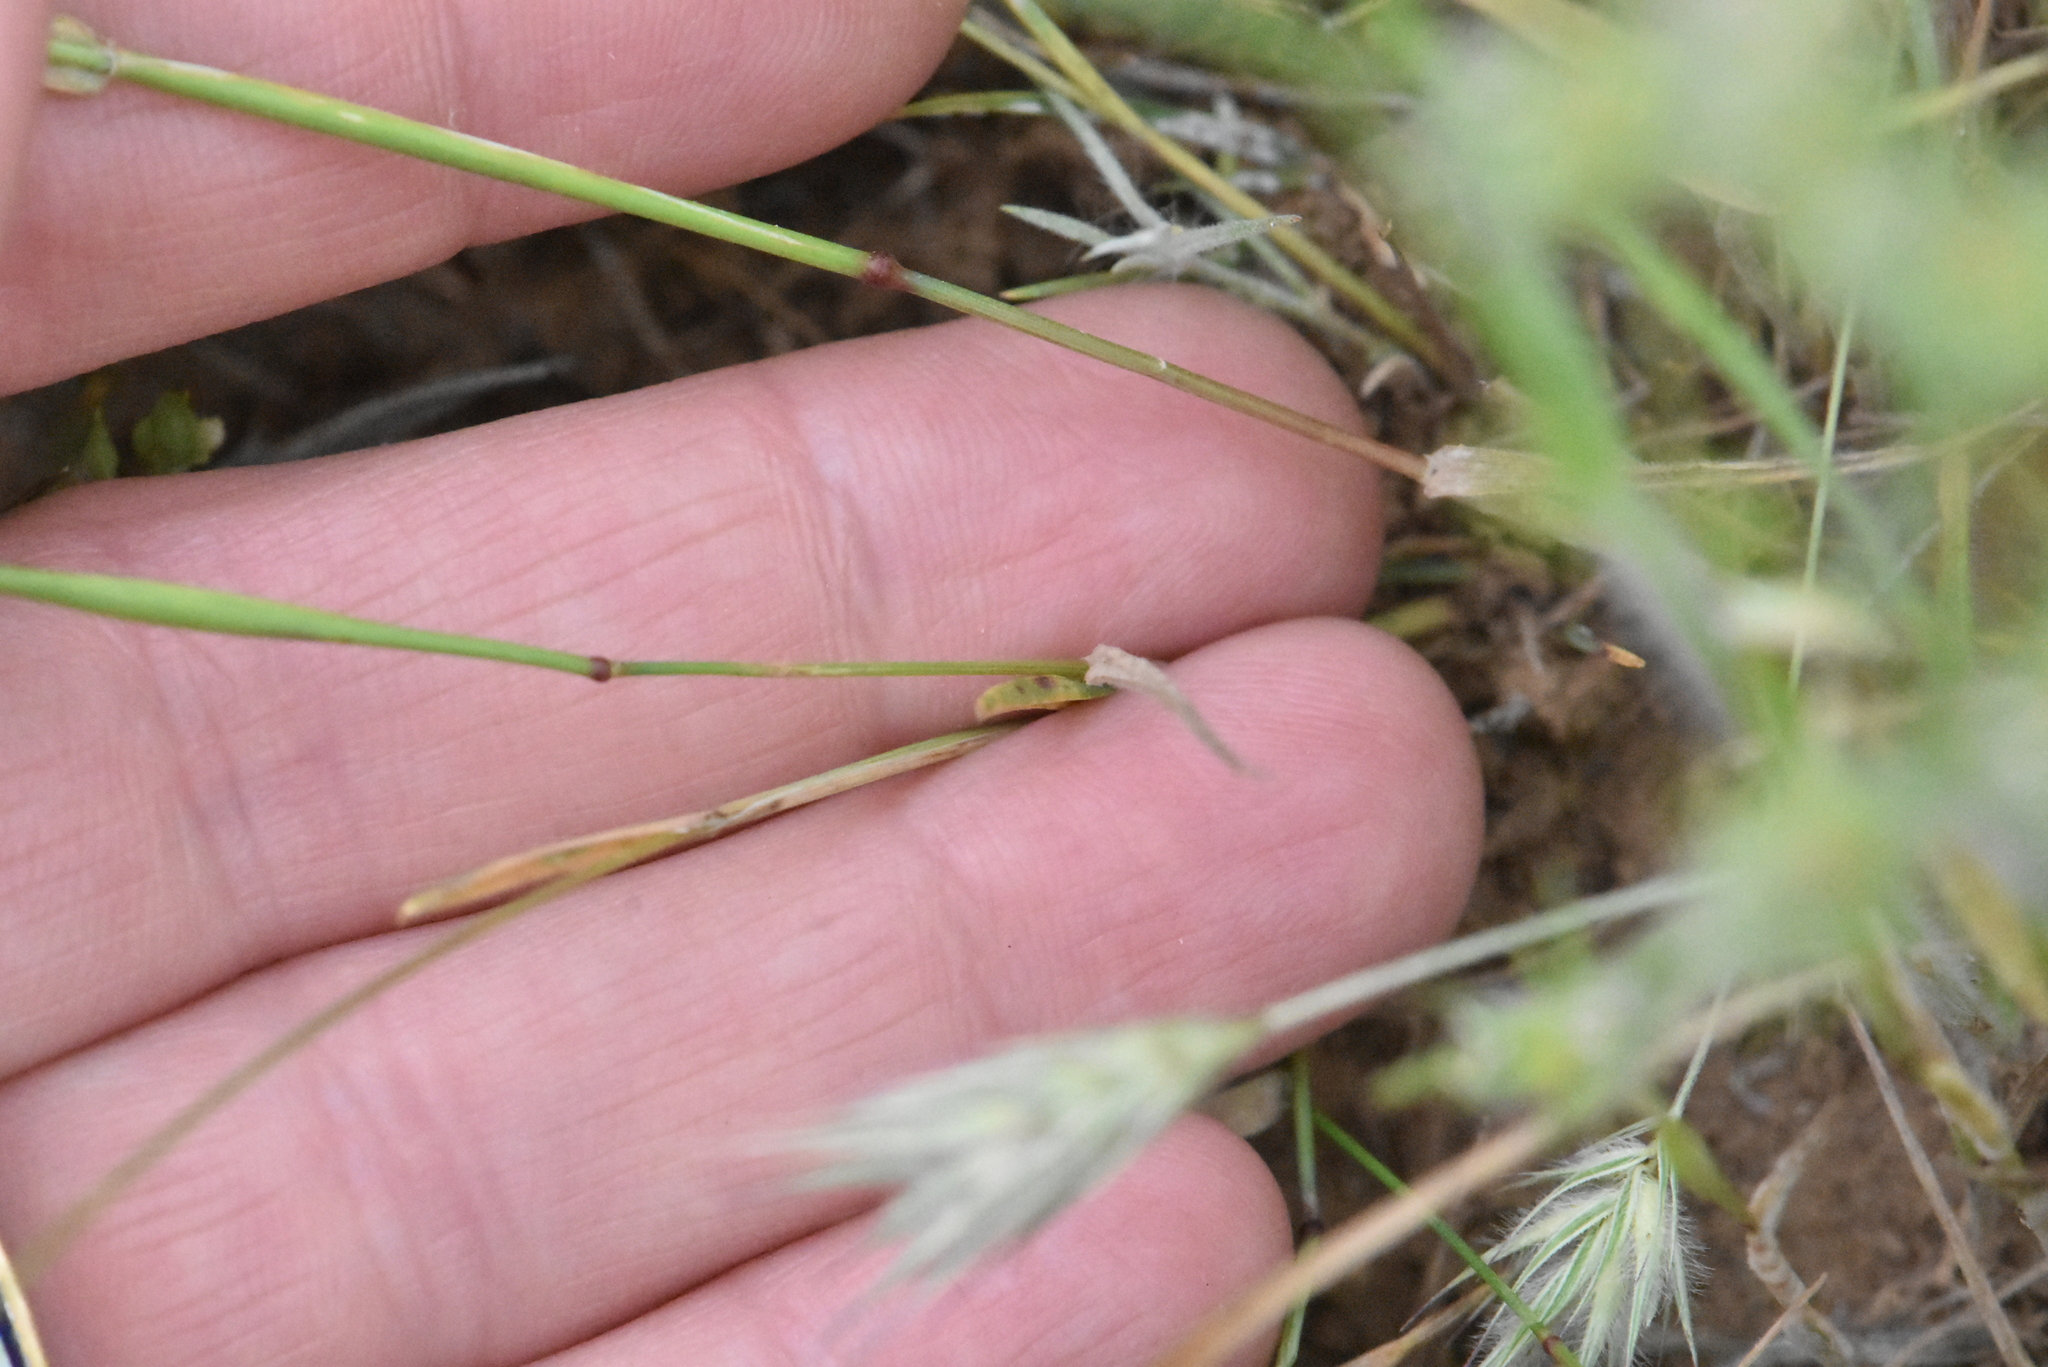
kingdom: Plantae
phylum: Tracheophyta
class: Liliopsida
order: Poales
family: Poaceae
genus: Eremopyrum
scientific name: Eremopyrum orientale
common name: Oriental false wheatgrass
